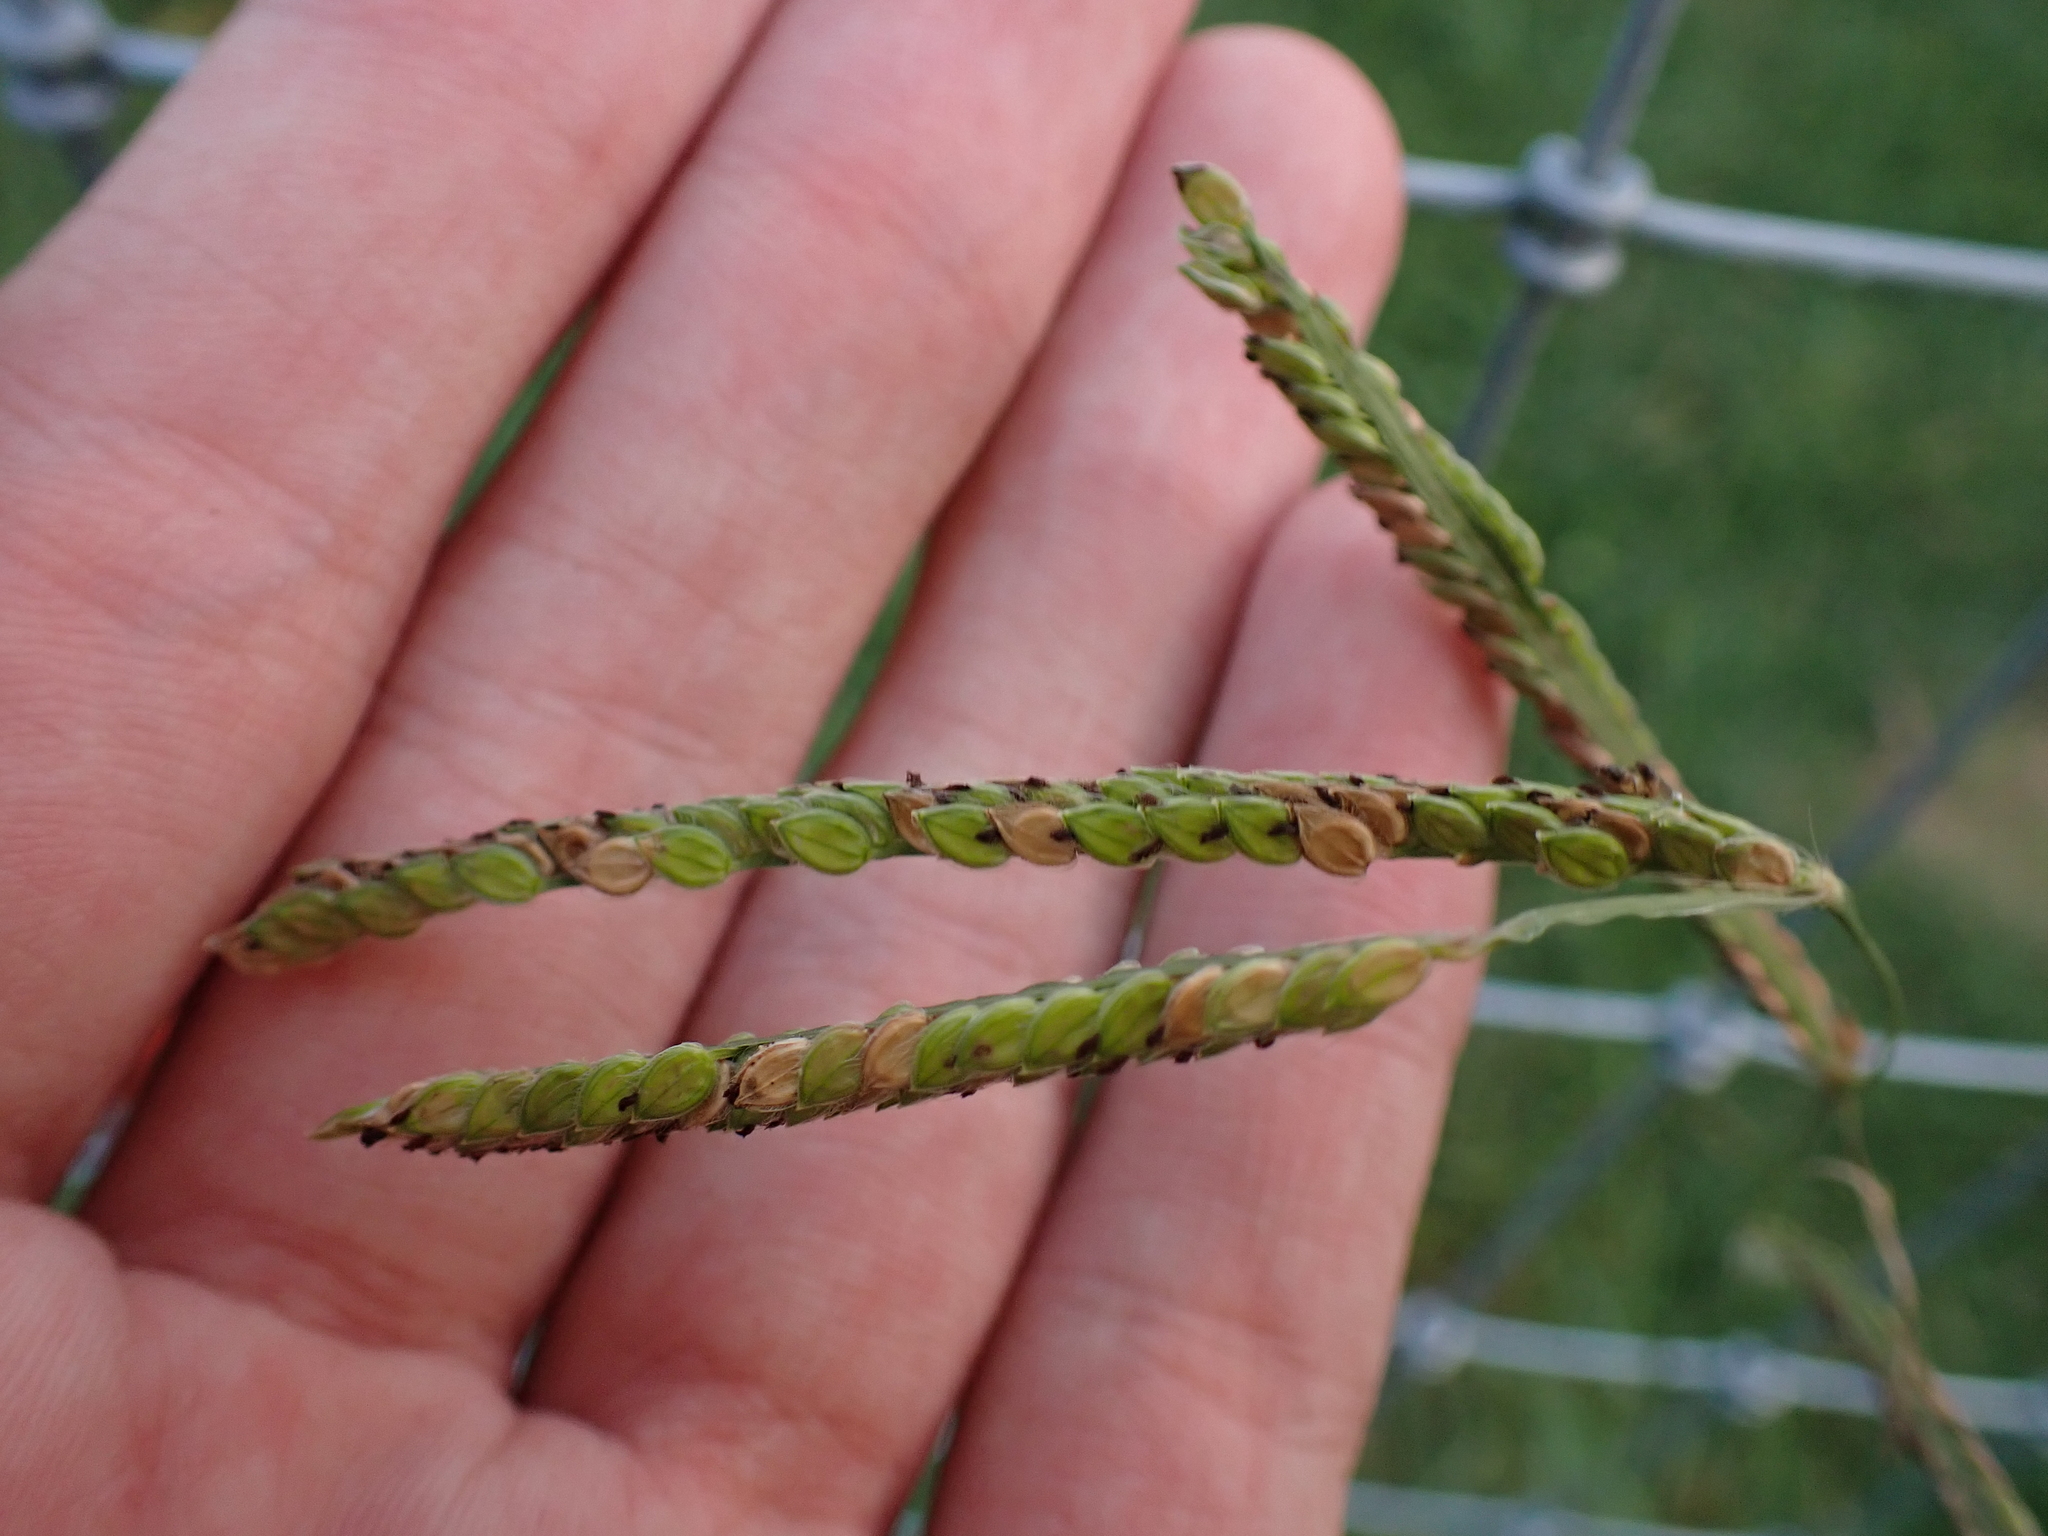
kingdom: Plantae
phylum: Tracheophyta
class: Liliopsida
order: Poales
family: Poaceae
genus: Paspalum
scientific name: Paspalum dilatatum
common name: Dallisgrass
